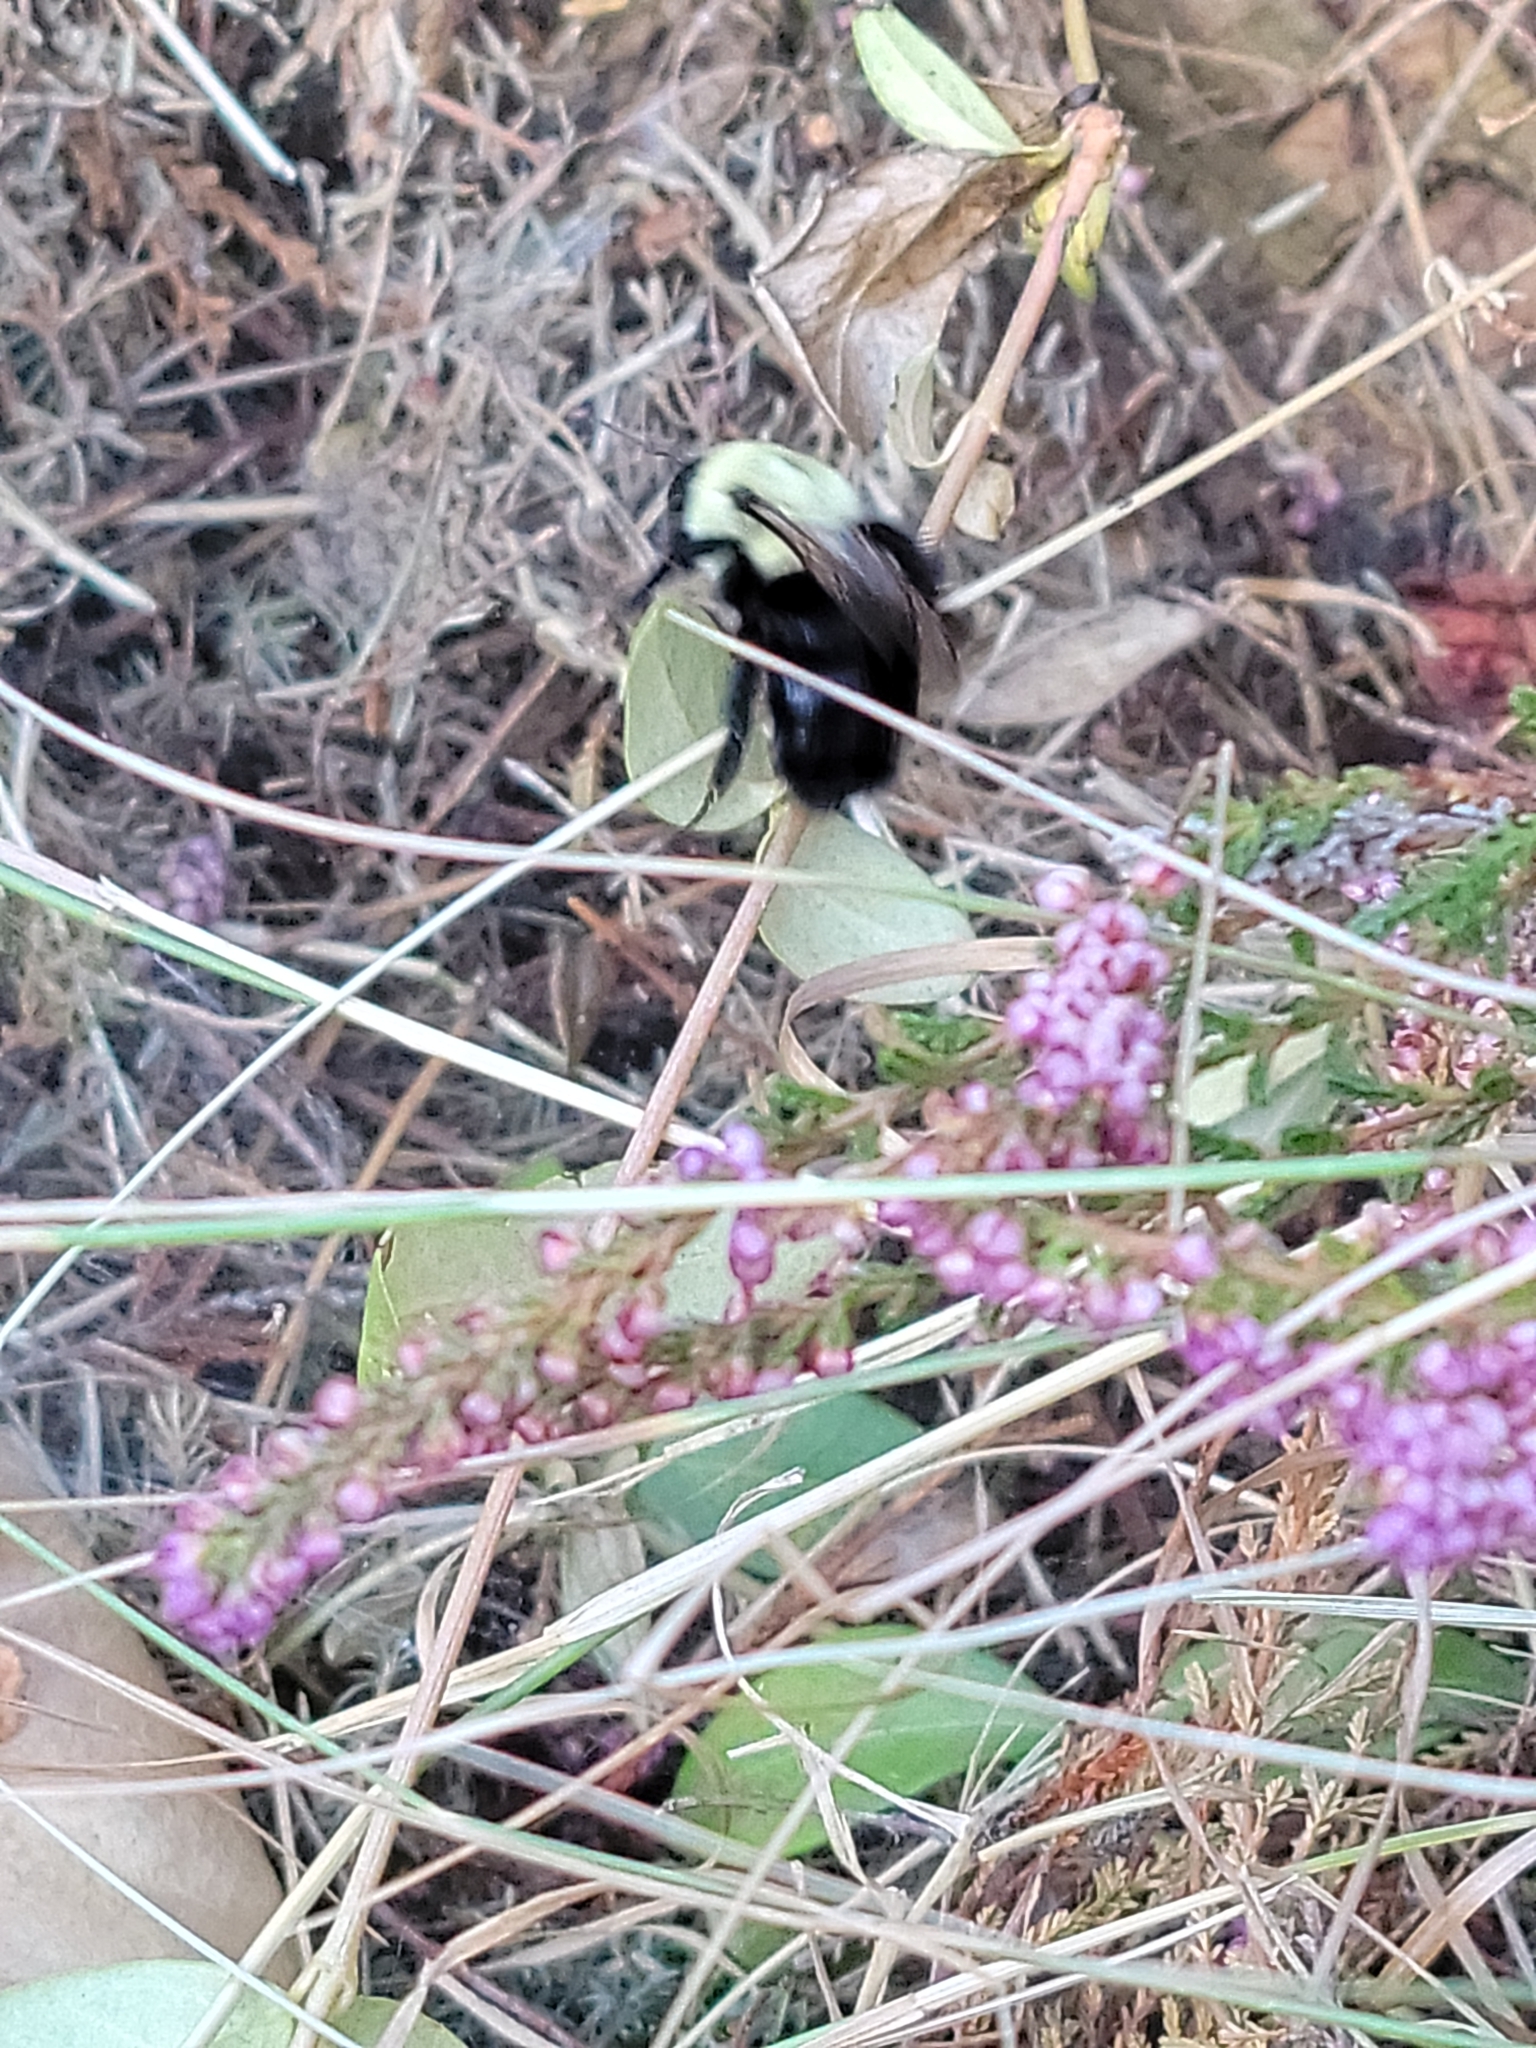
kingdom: Animalia
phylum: Arthropoda
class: Insecta
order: Hymenoptera
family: Apidae
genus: Bombus
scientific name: Bombus impatiens
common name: Common eastern bumble bee
